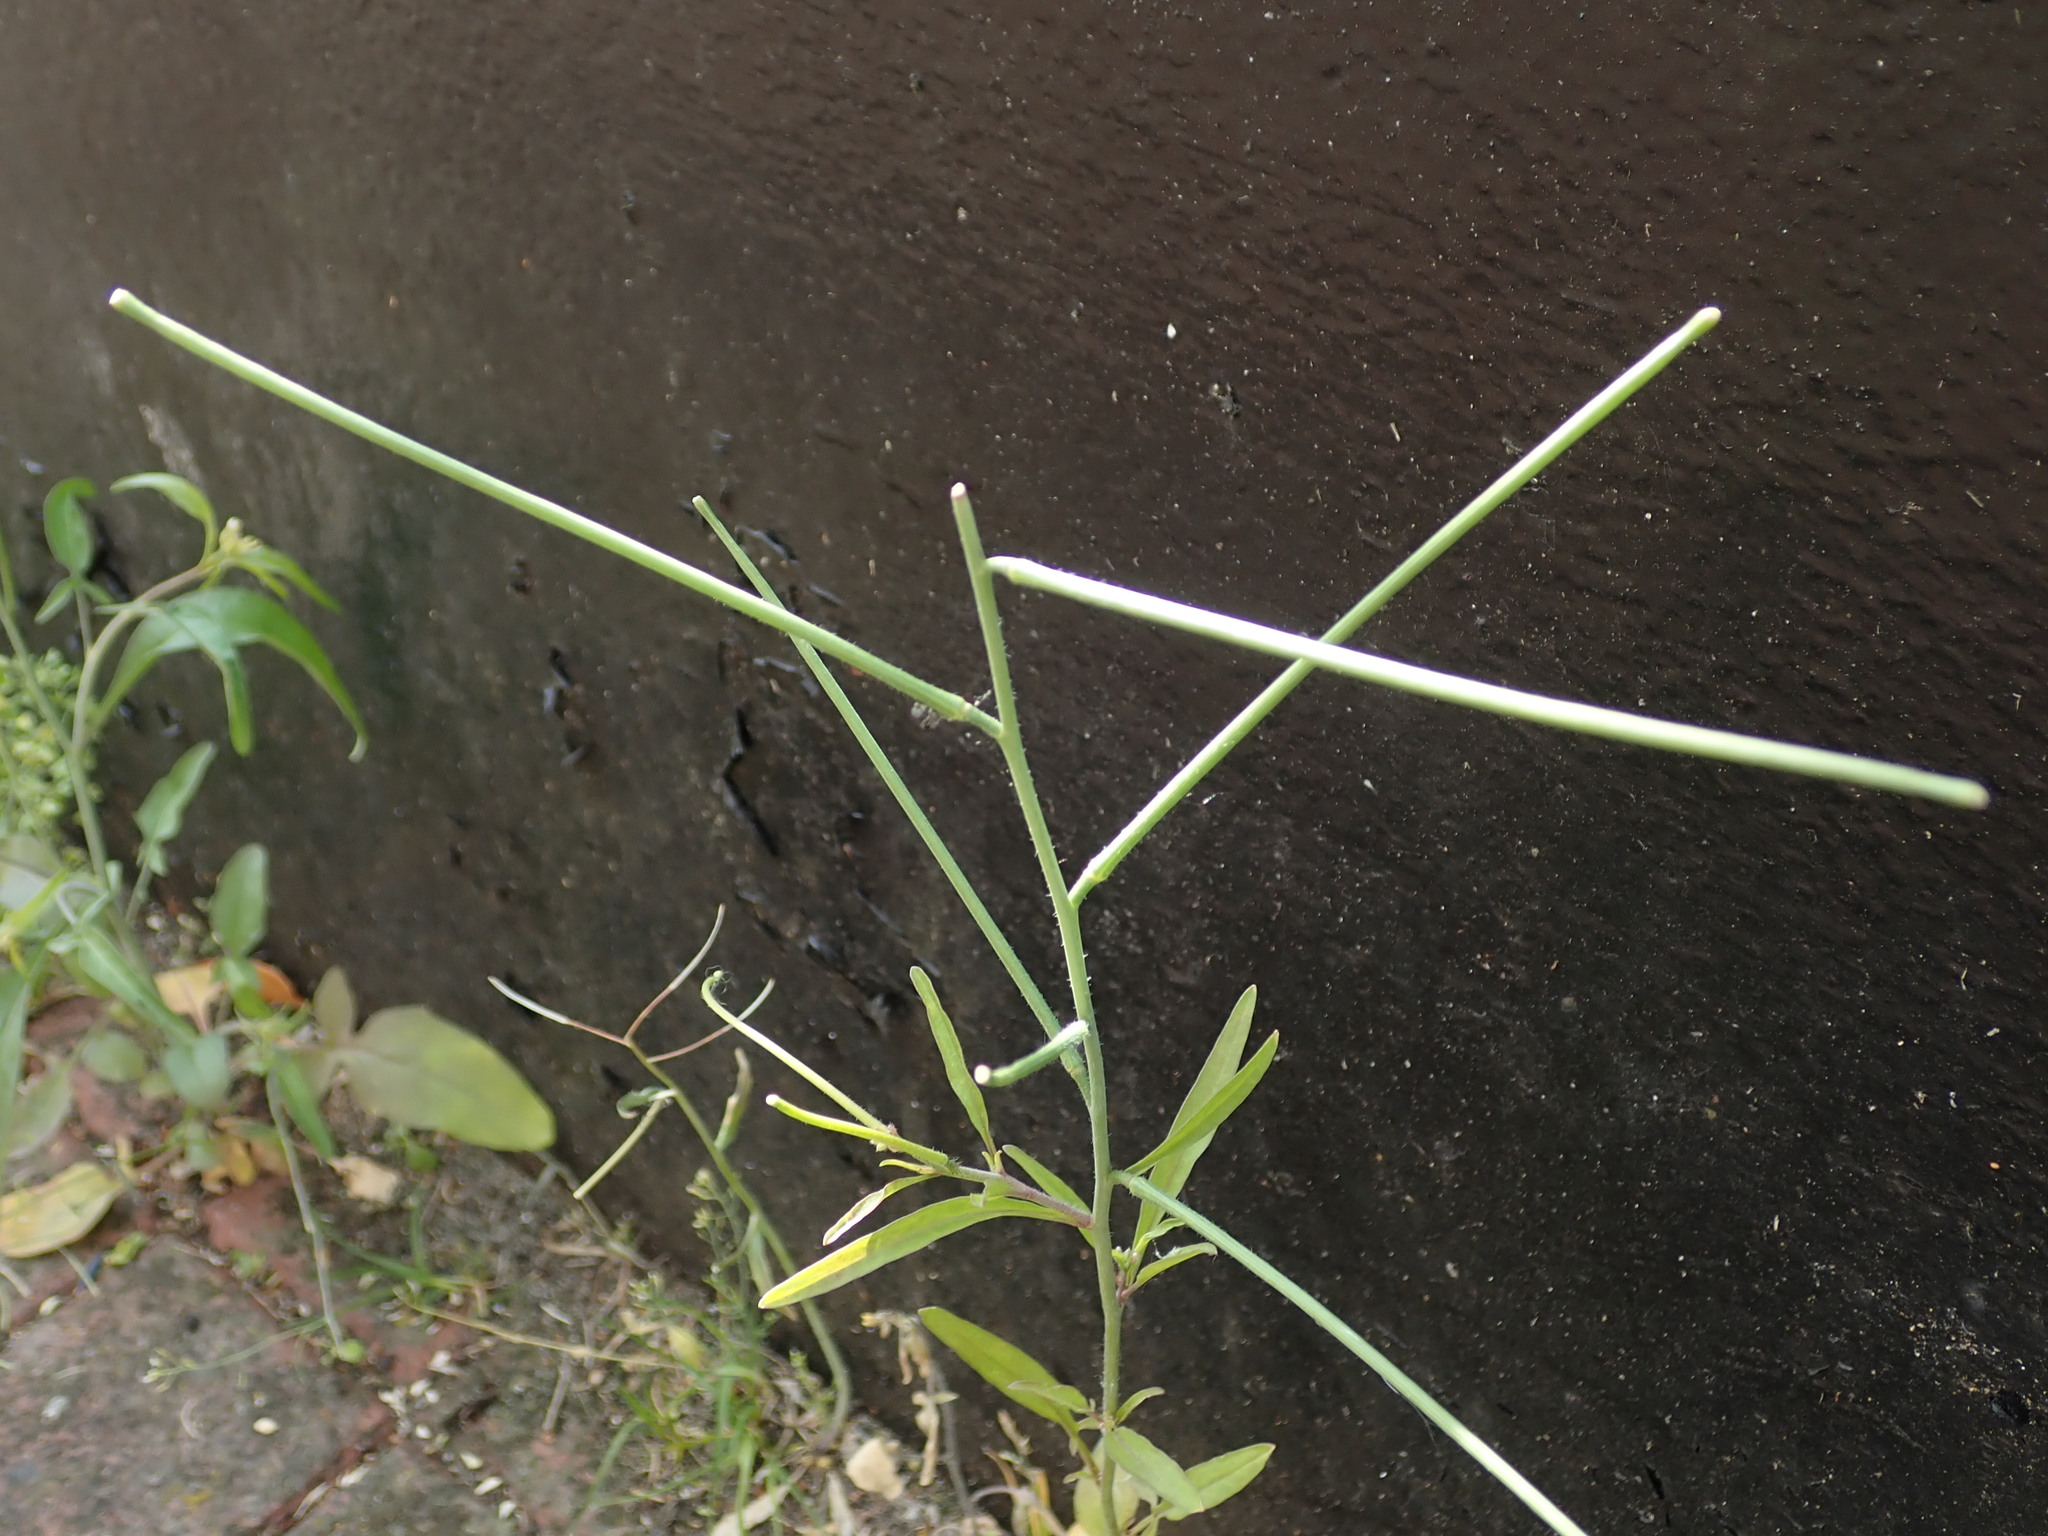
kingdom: Plantae
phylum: Tracheophyta
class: Magnoliopsida
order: Brassicales
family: Brassicaceae
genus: Sisymbrium
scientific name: Sisymbrium orientale
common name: Eastern rocket
